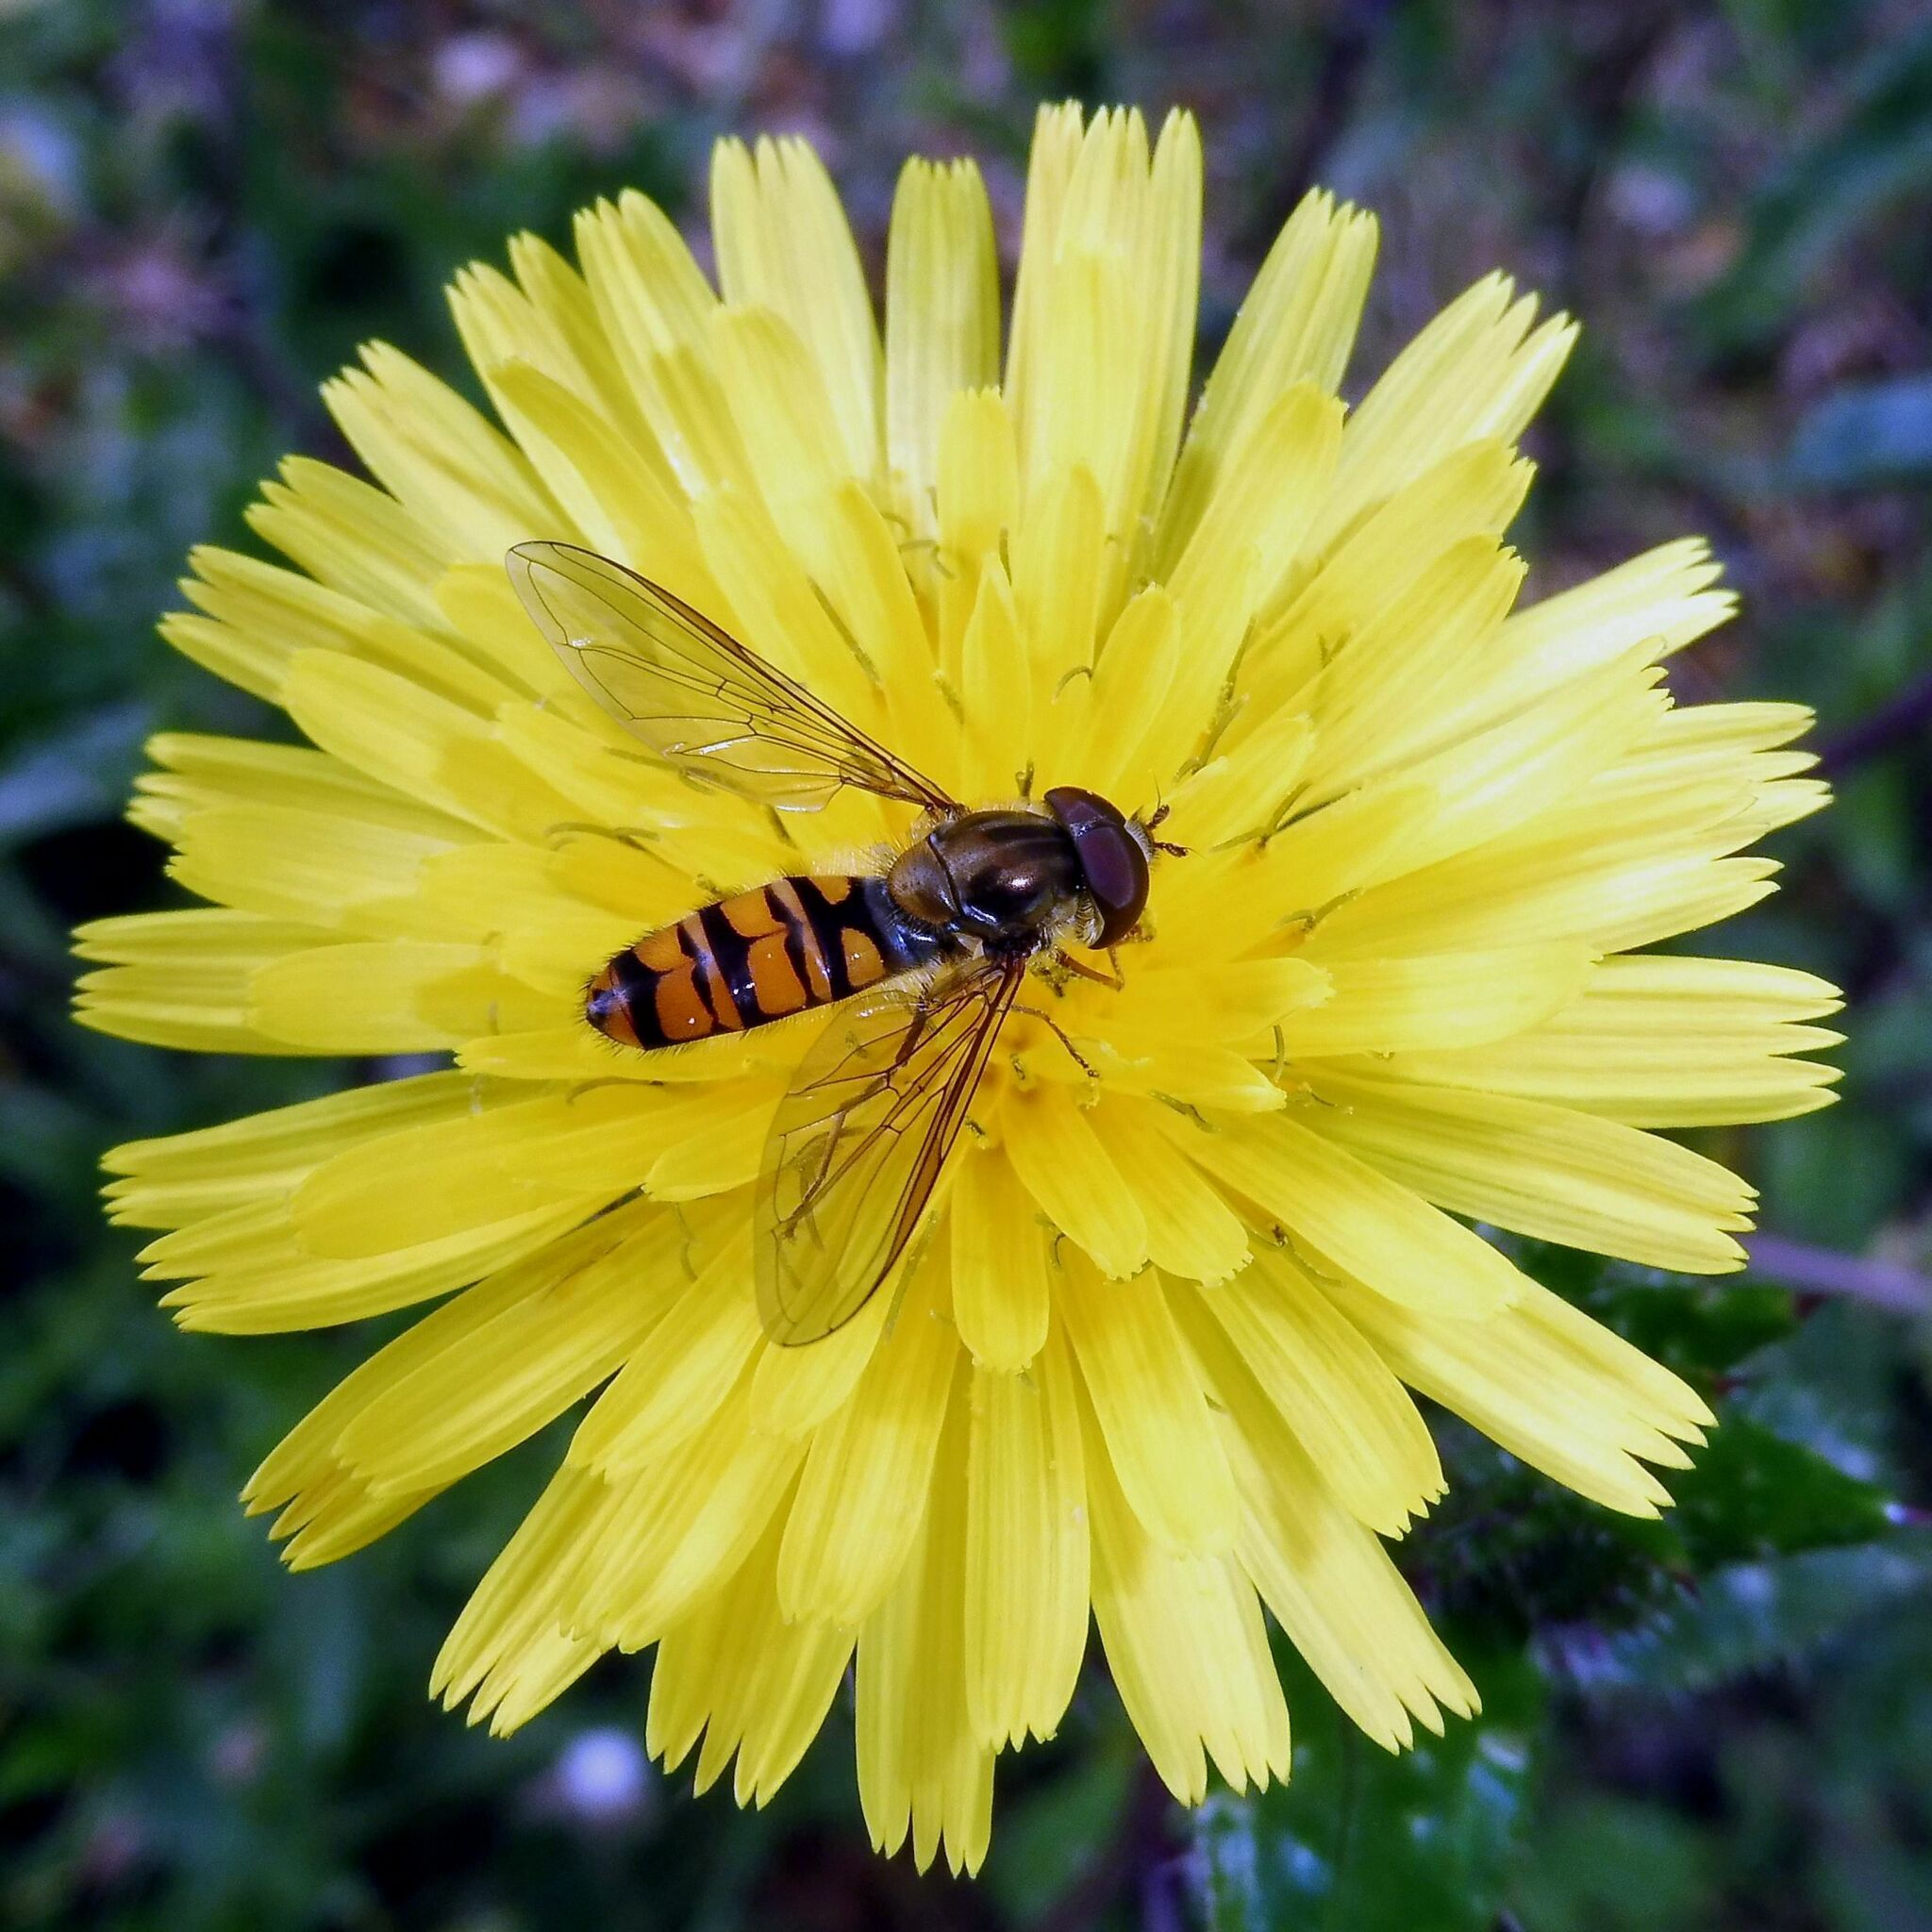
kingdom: Animalia
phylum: Arthropoda
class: Insecta
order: Diptera
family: Syrphidae
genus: Episyrphus
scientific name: Episyrphus balteatus
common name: Marmalade hoverfly
